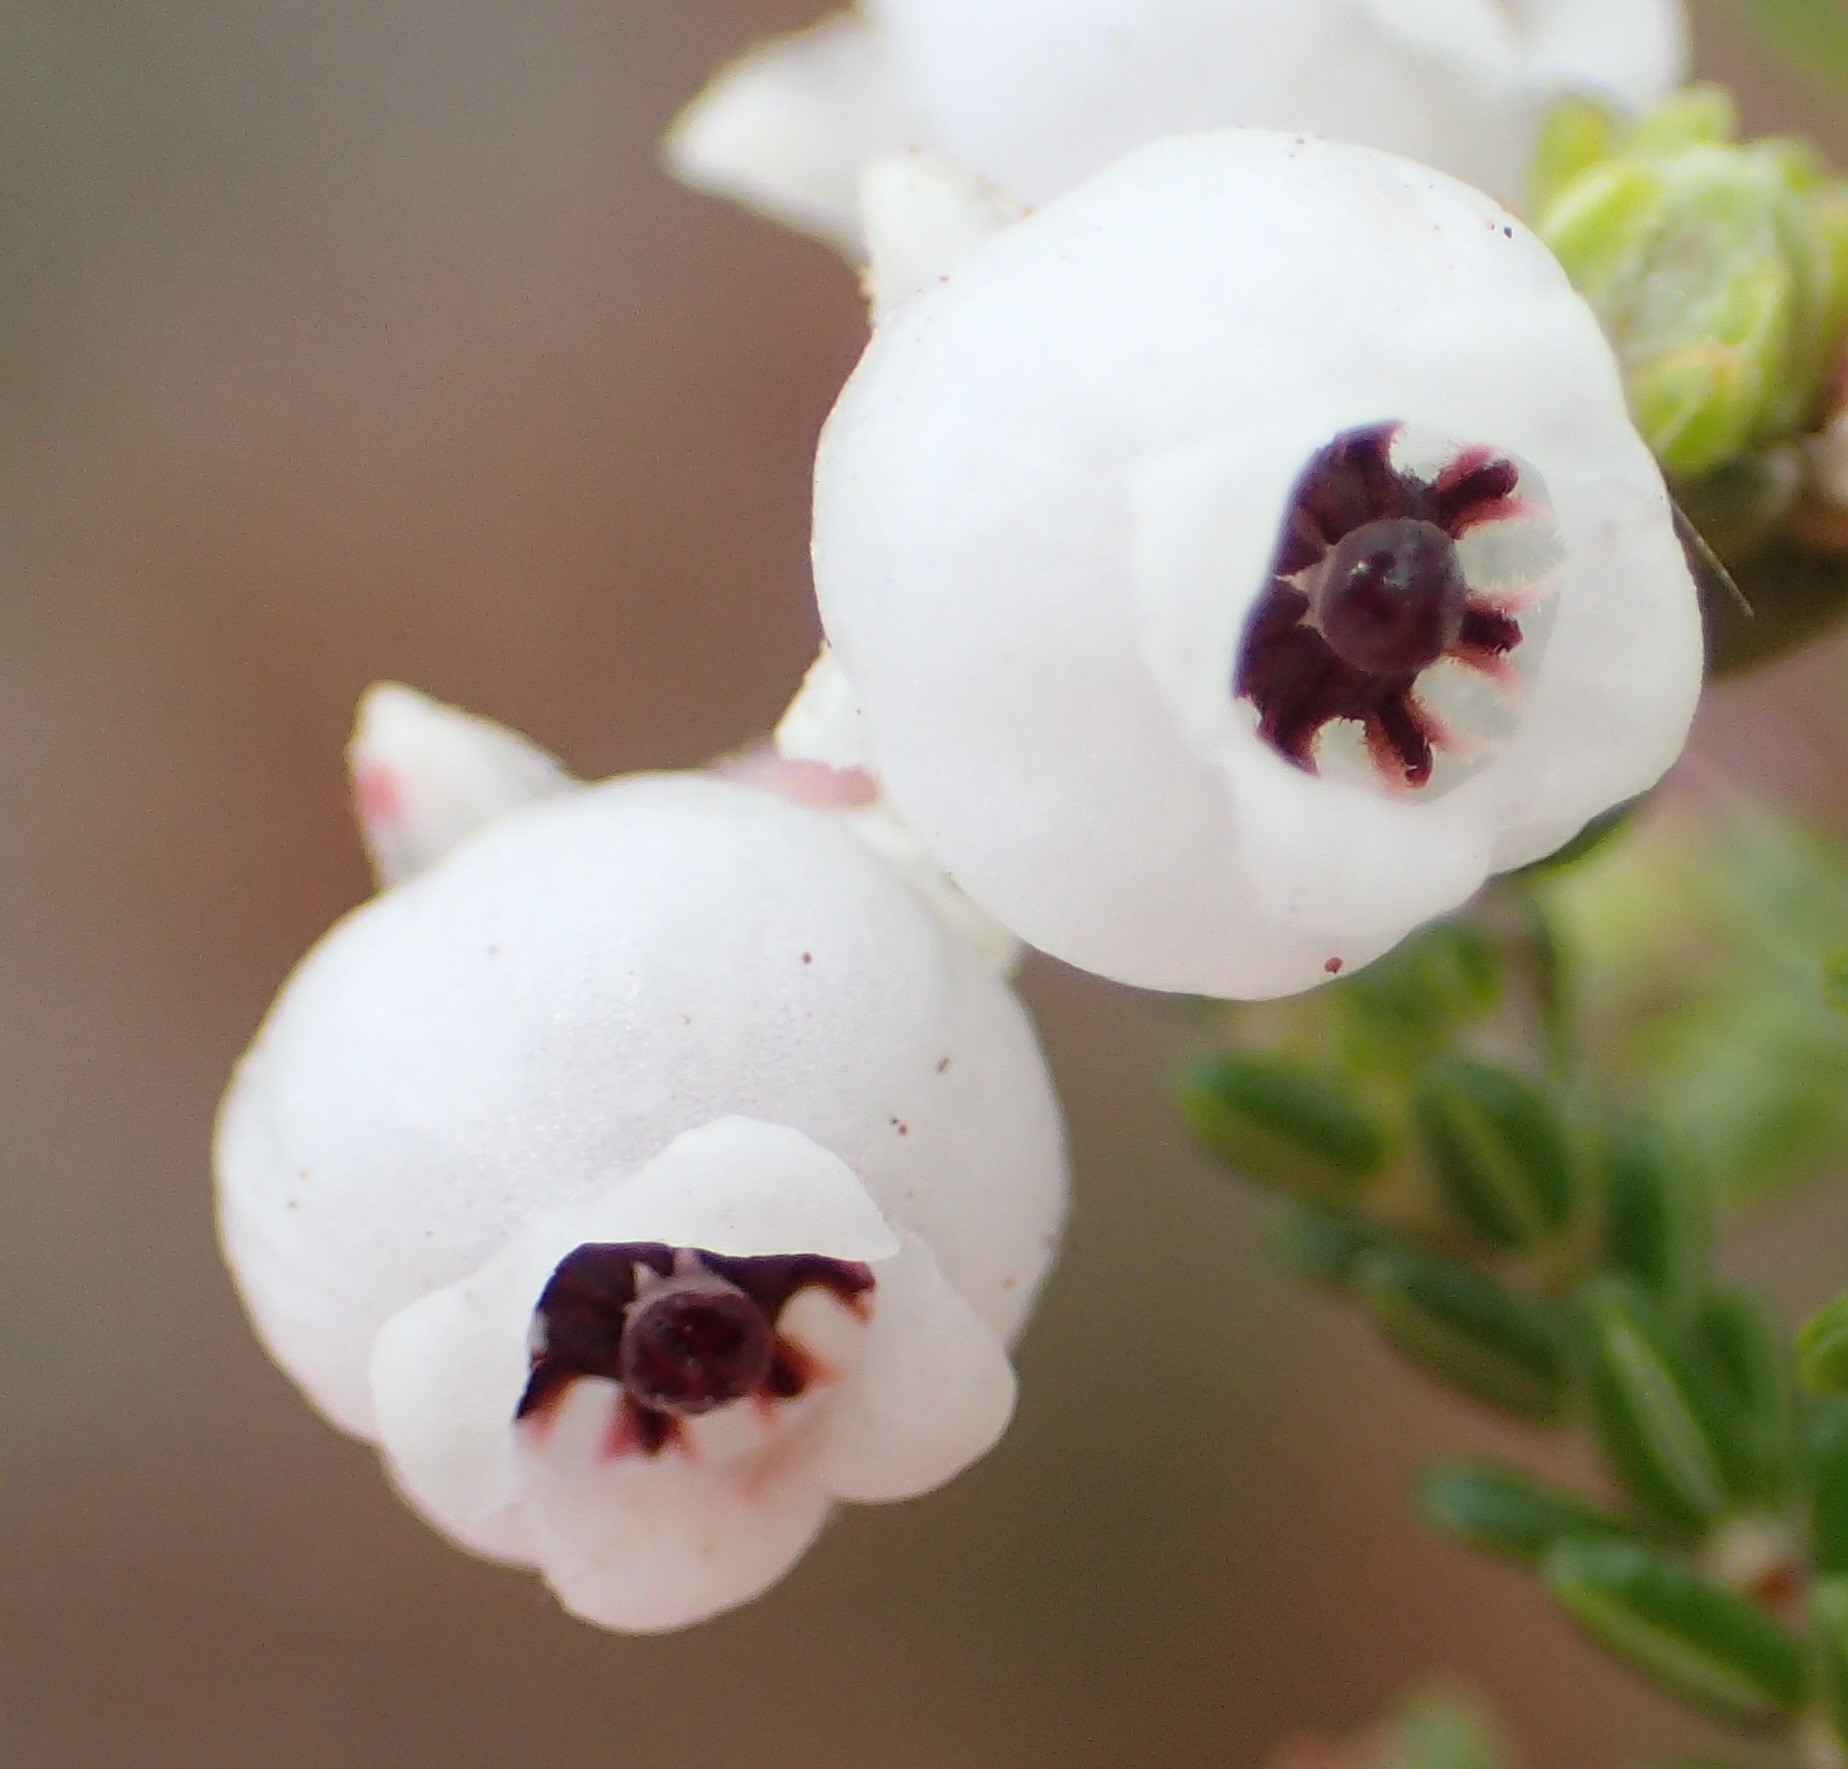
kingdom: Plantae
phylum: Tracheophyta
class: Magnoliopsida
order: Ericales
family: Ericaceae
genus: Erica
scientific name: Erica formosa
